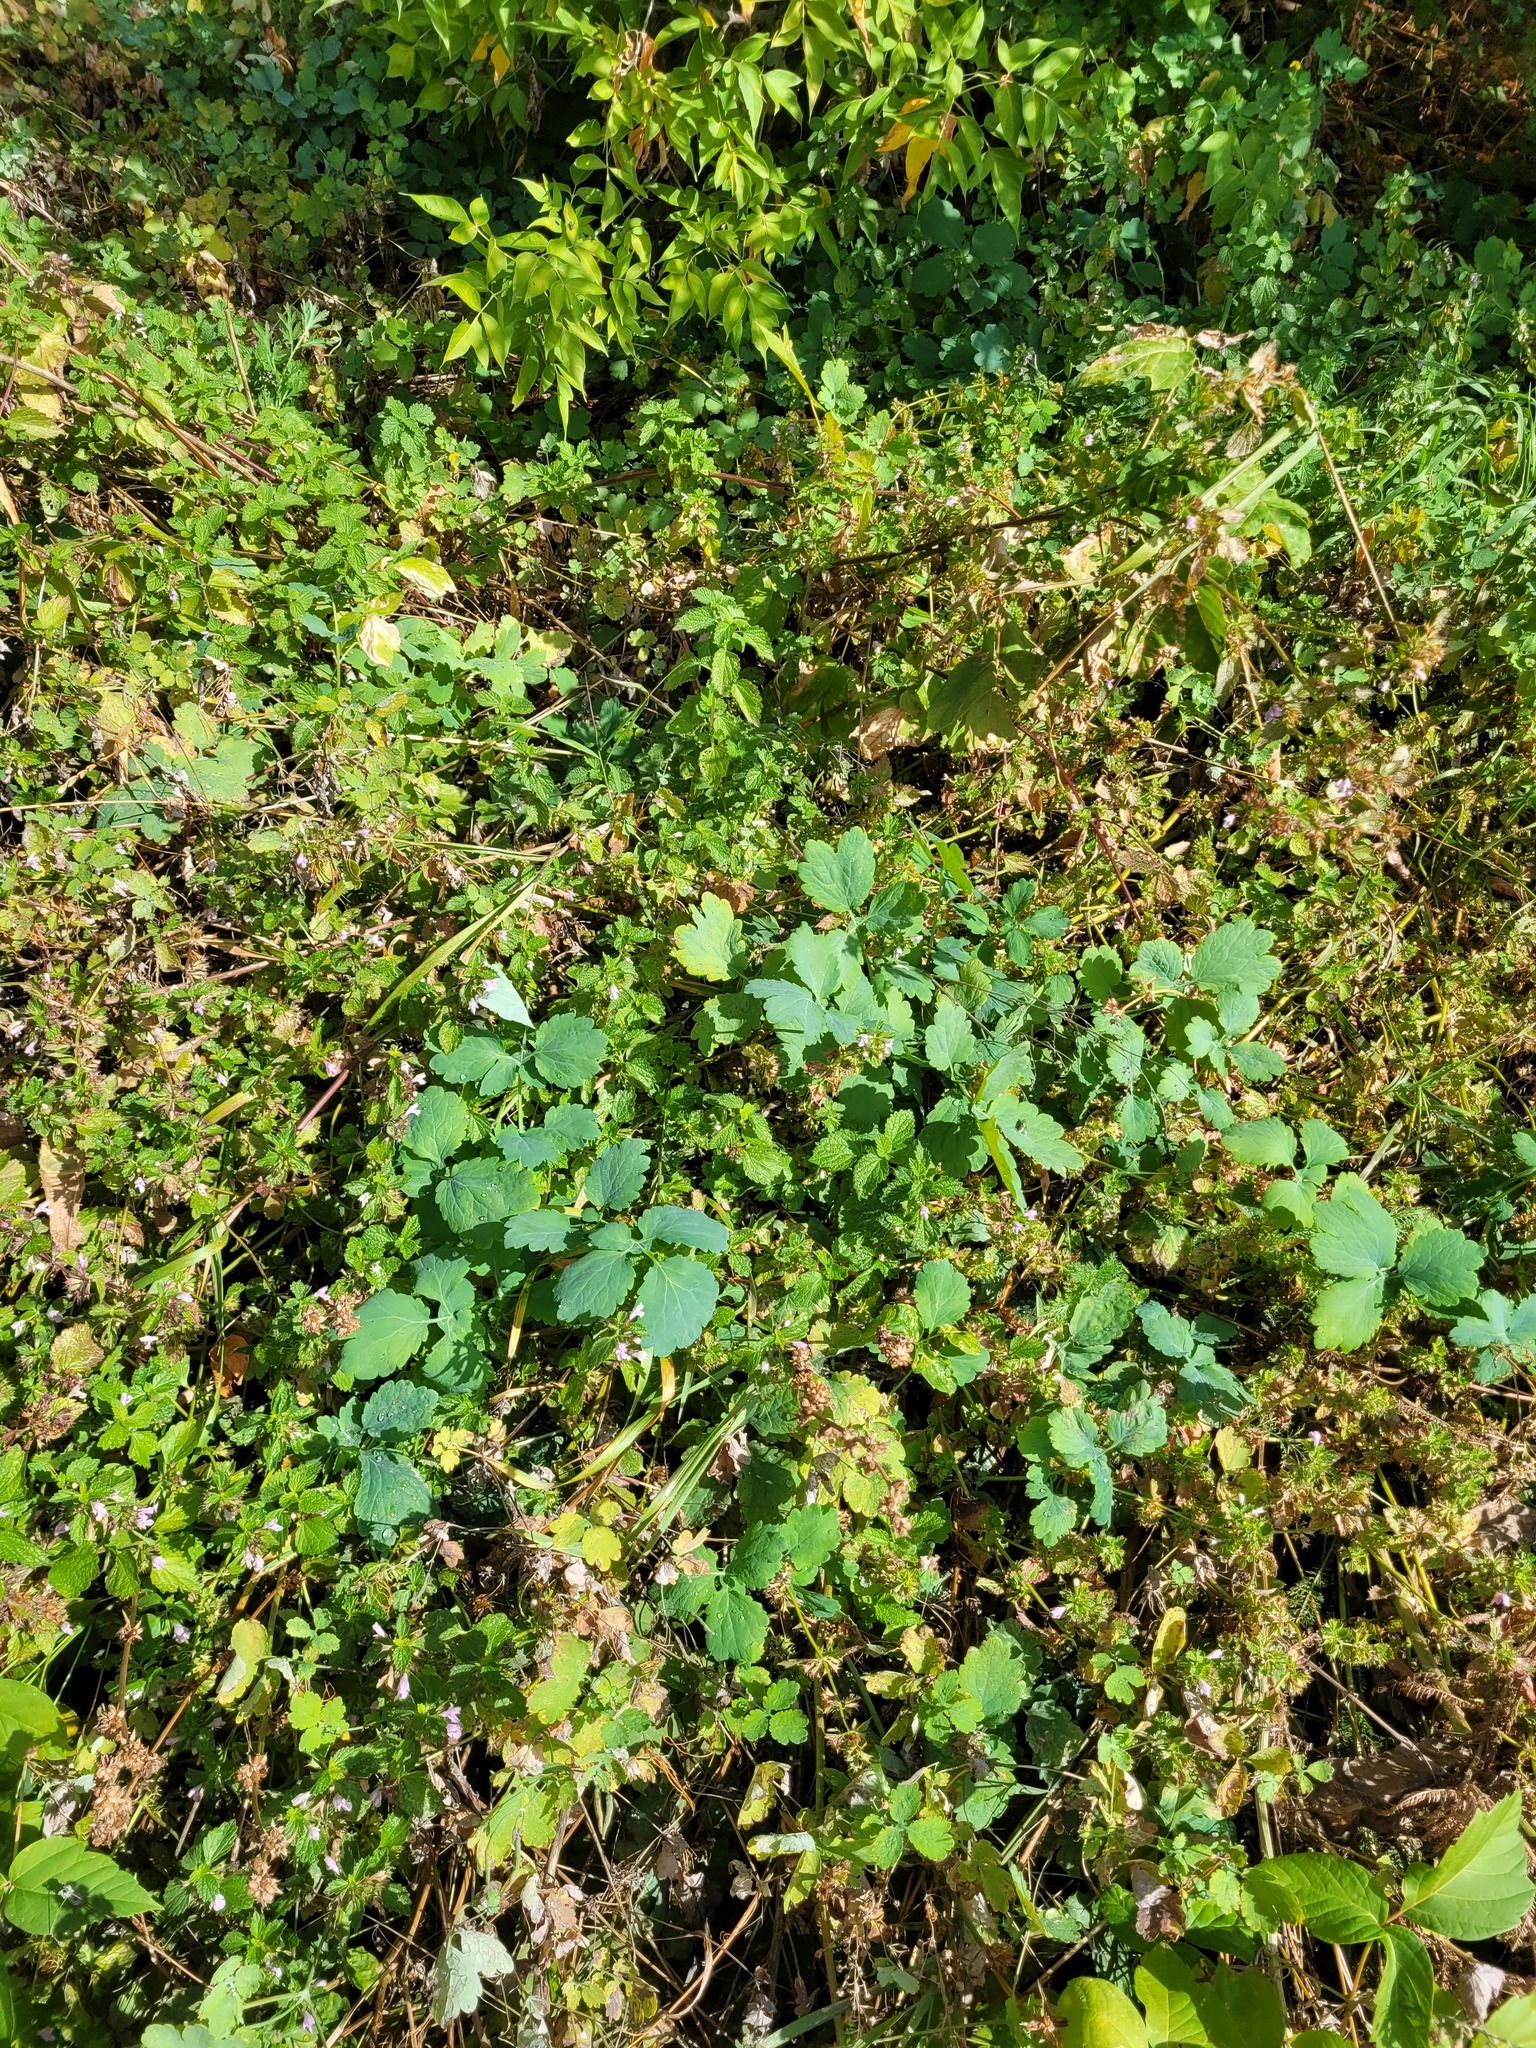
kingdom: Plantae
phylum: Tracheophyta
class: Magnoliopsida
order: Ranunculales
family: Papaveraceae
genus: Chelidonium
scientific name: Chelidonium majus
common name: Greater celandine
